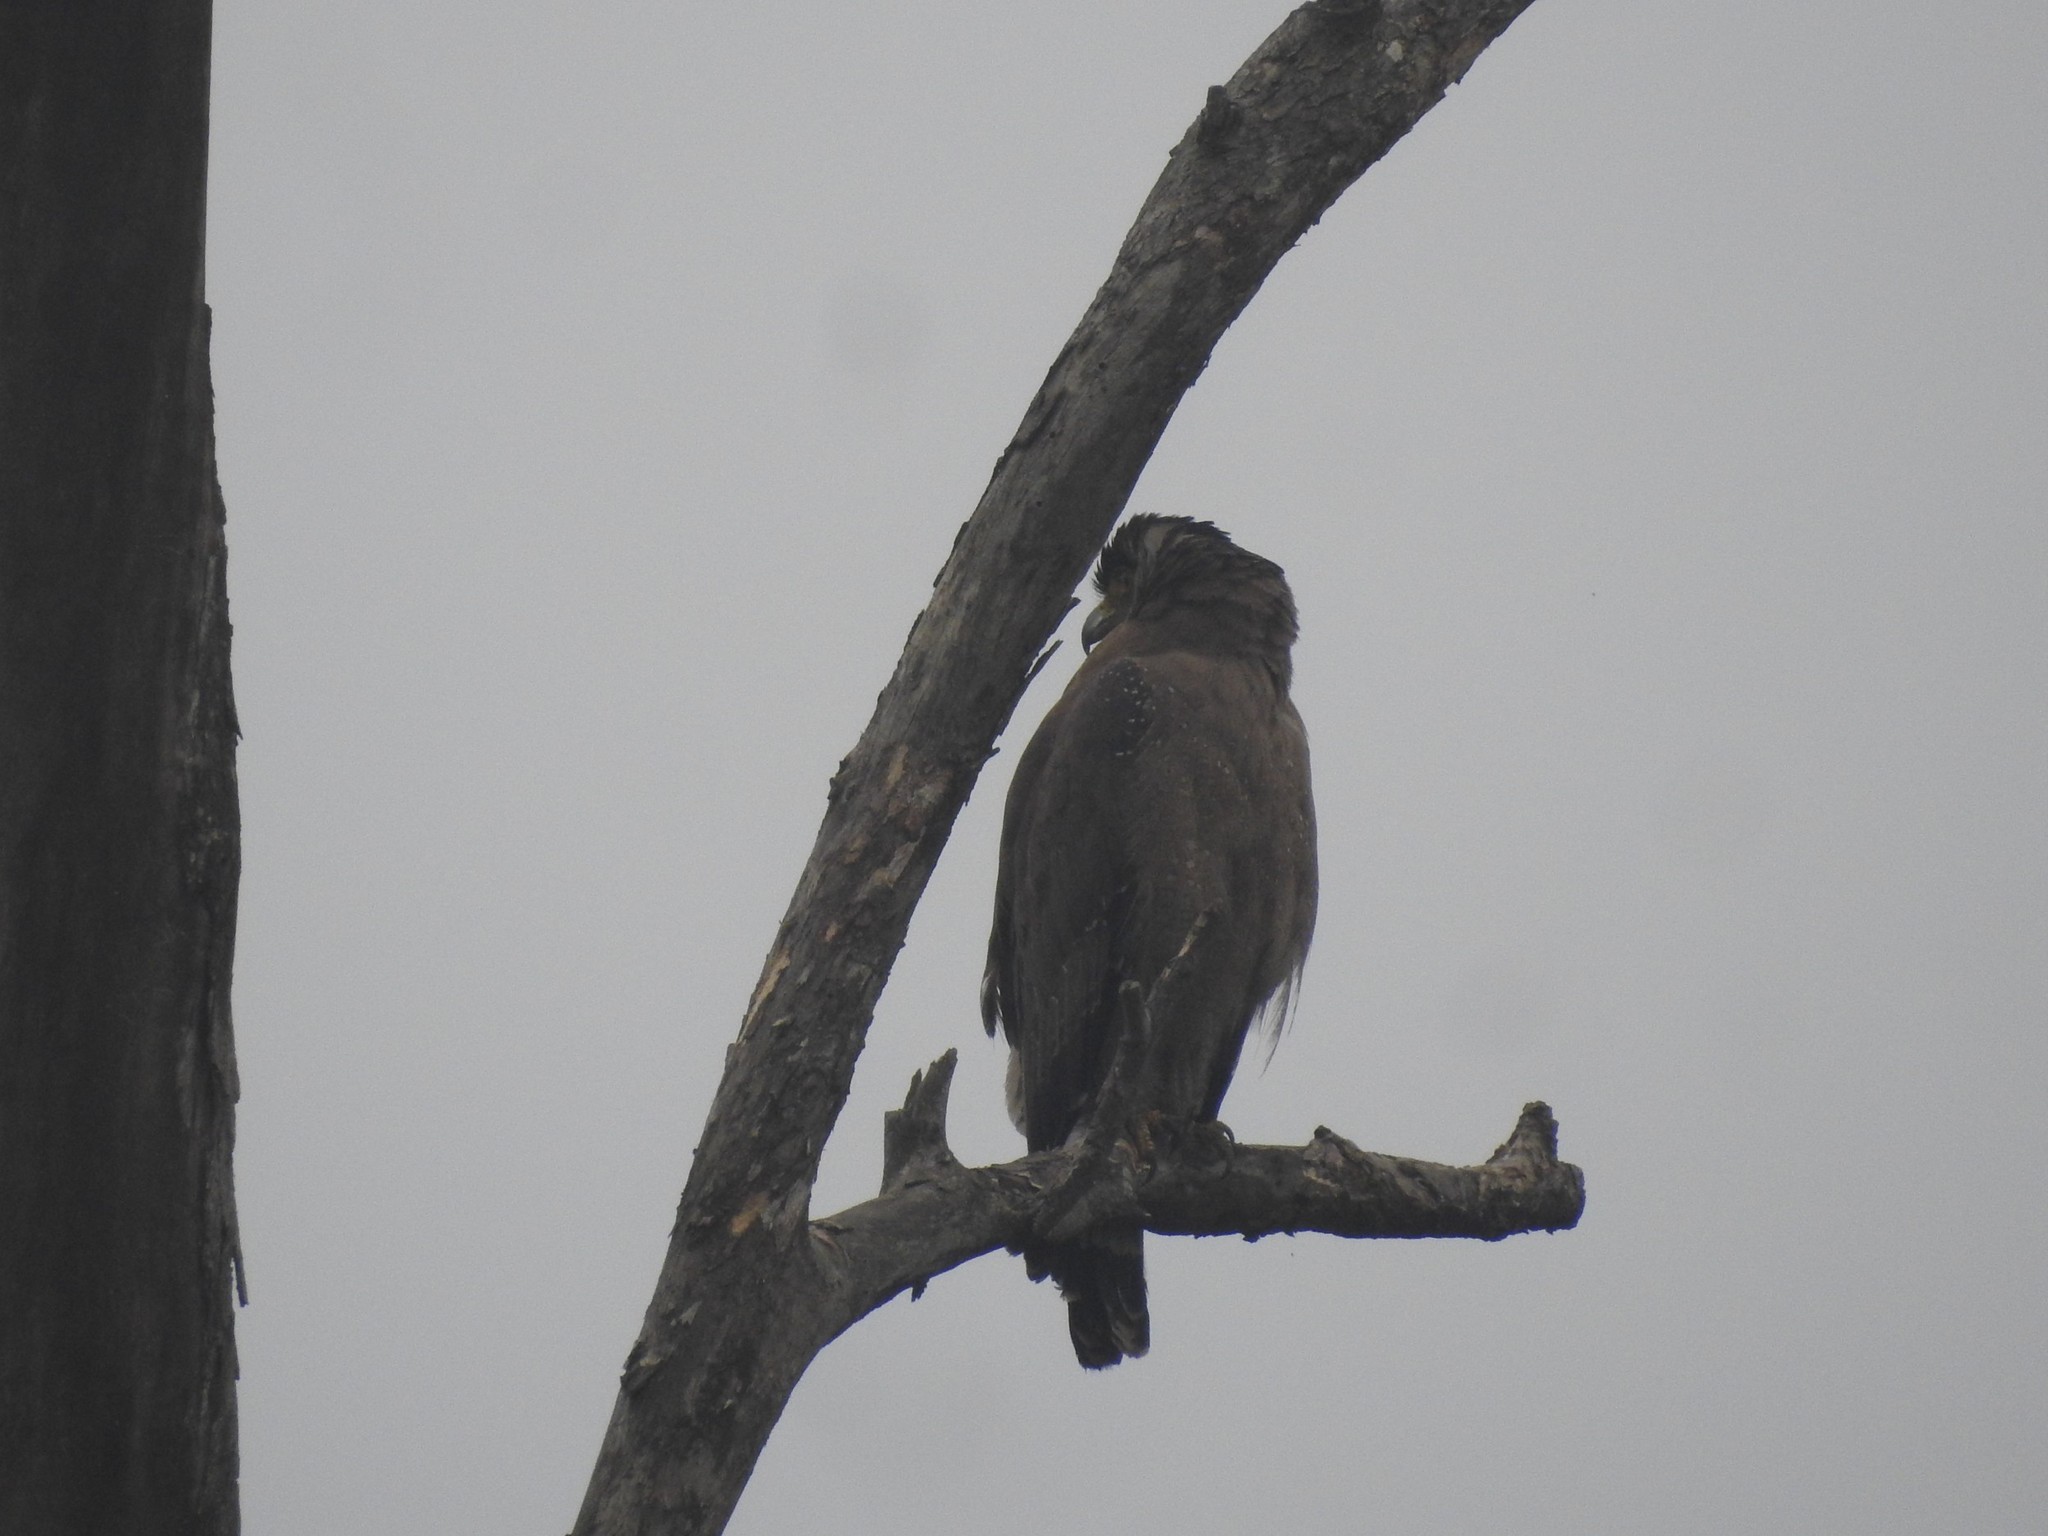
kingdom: Animalia
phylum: Chordata
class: Aves
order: Accipitriformes
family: Accipitridae
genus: Spilornis
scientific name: Spilornis cheela
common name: Crested serpent eagle
